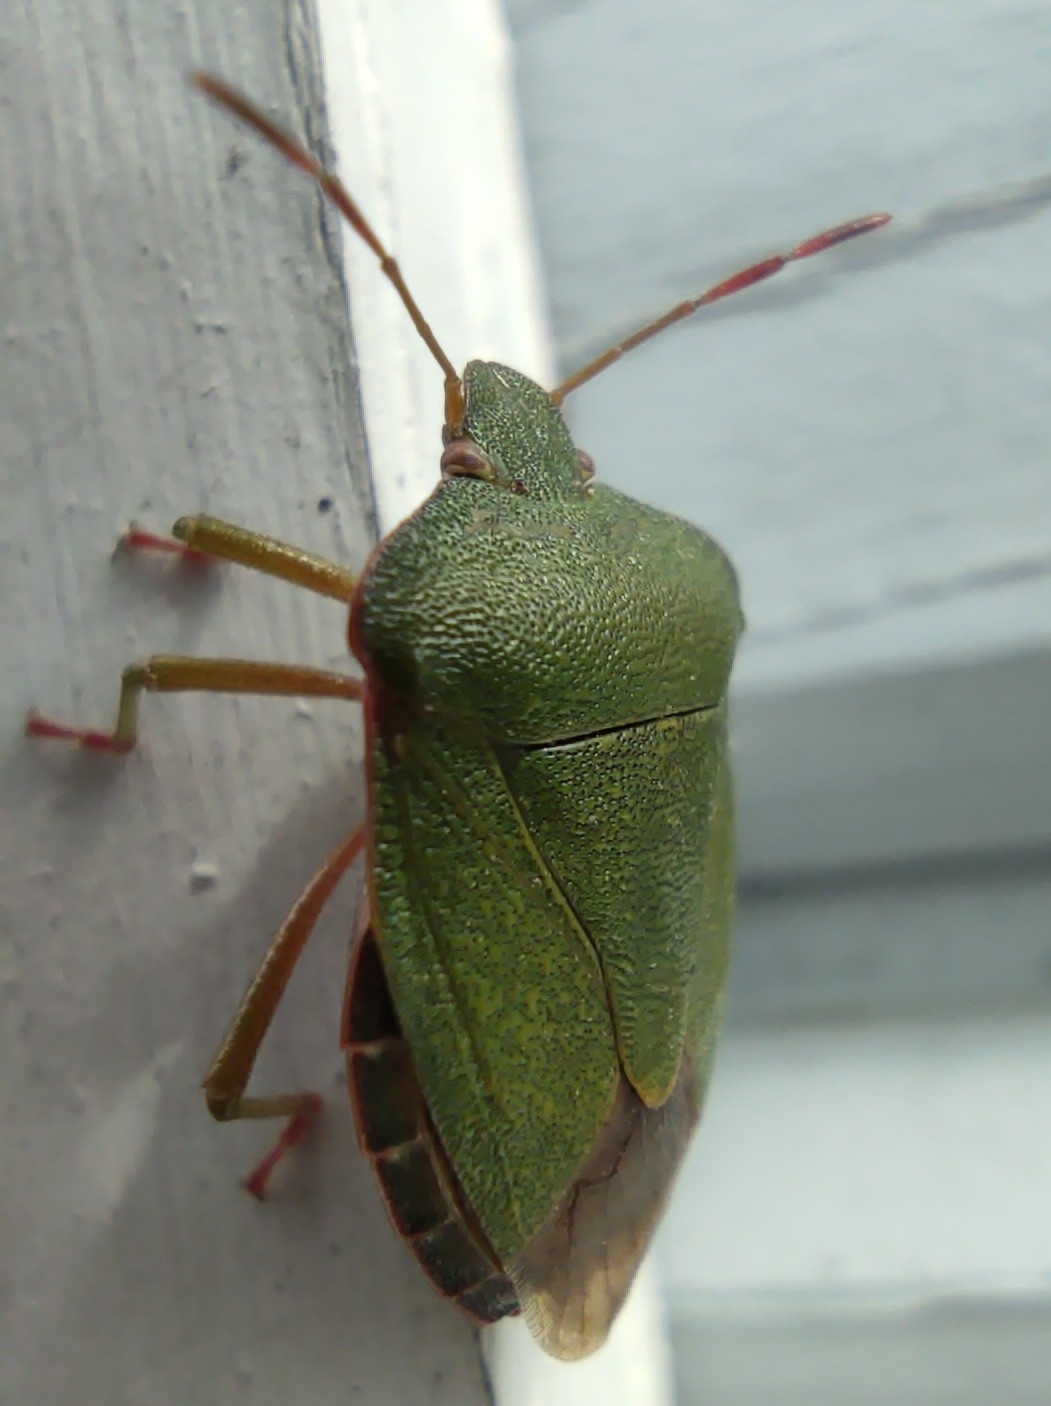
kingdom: Animalia
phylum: Arthropoda
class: Insecta
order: Hemiptera
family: Pentatomidae
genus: Palomena
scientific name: Palomena prasina
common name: Green shieldbug
